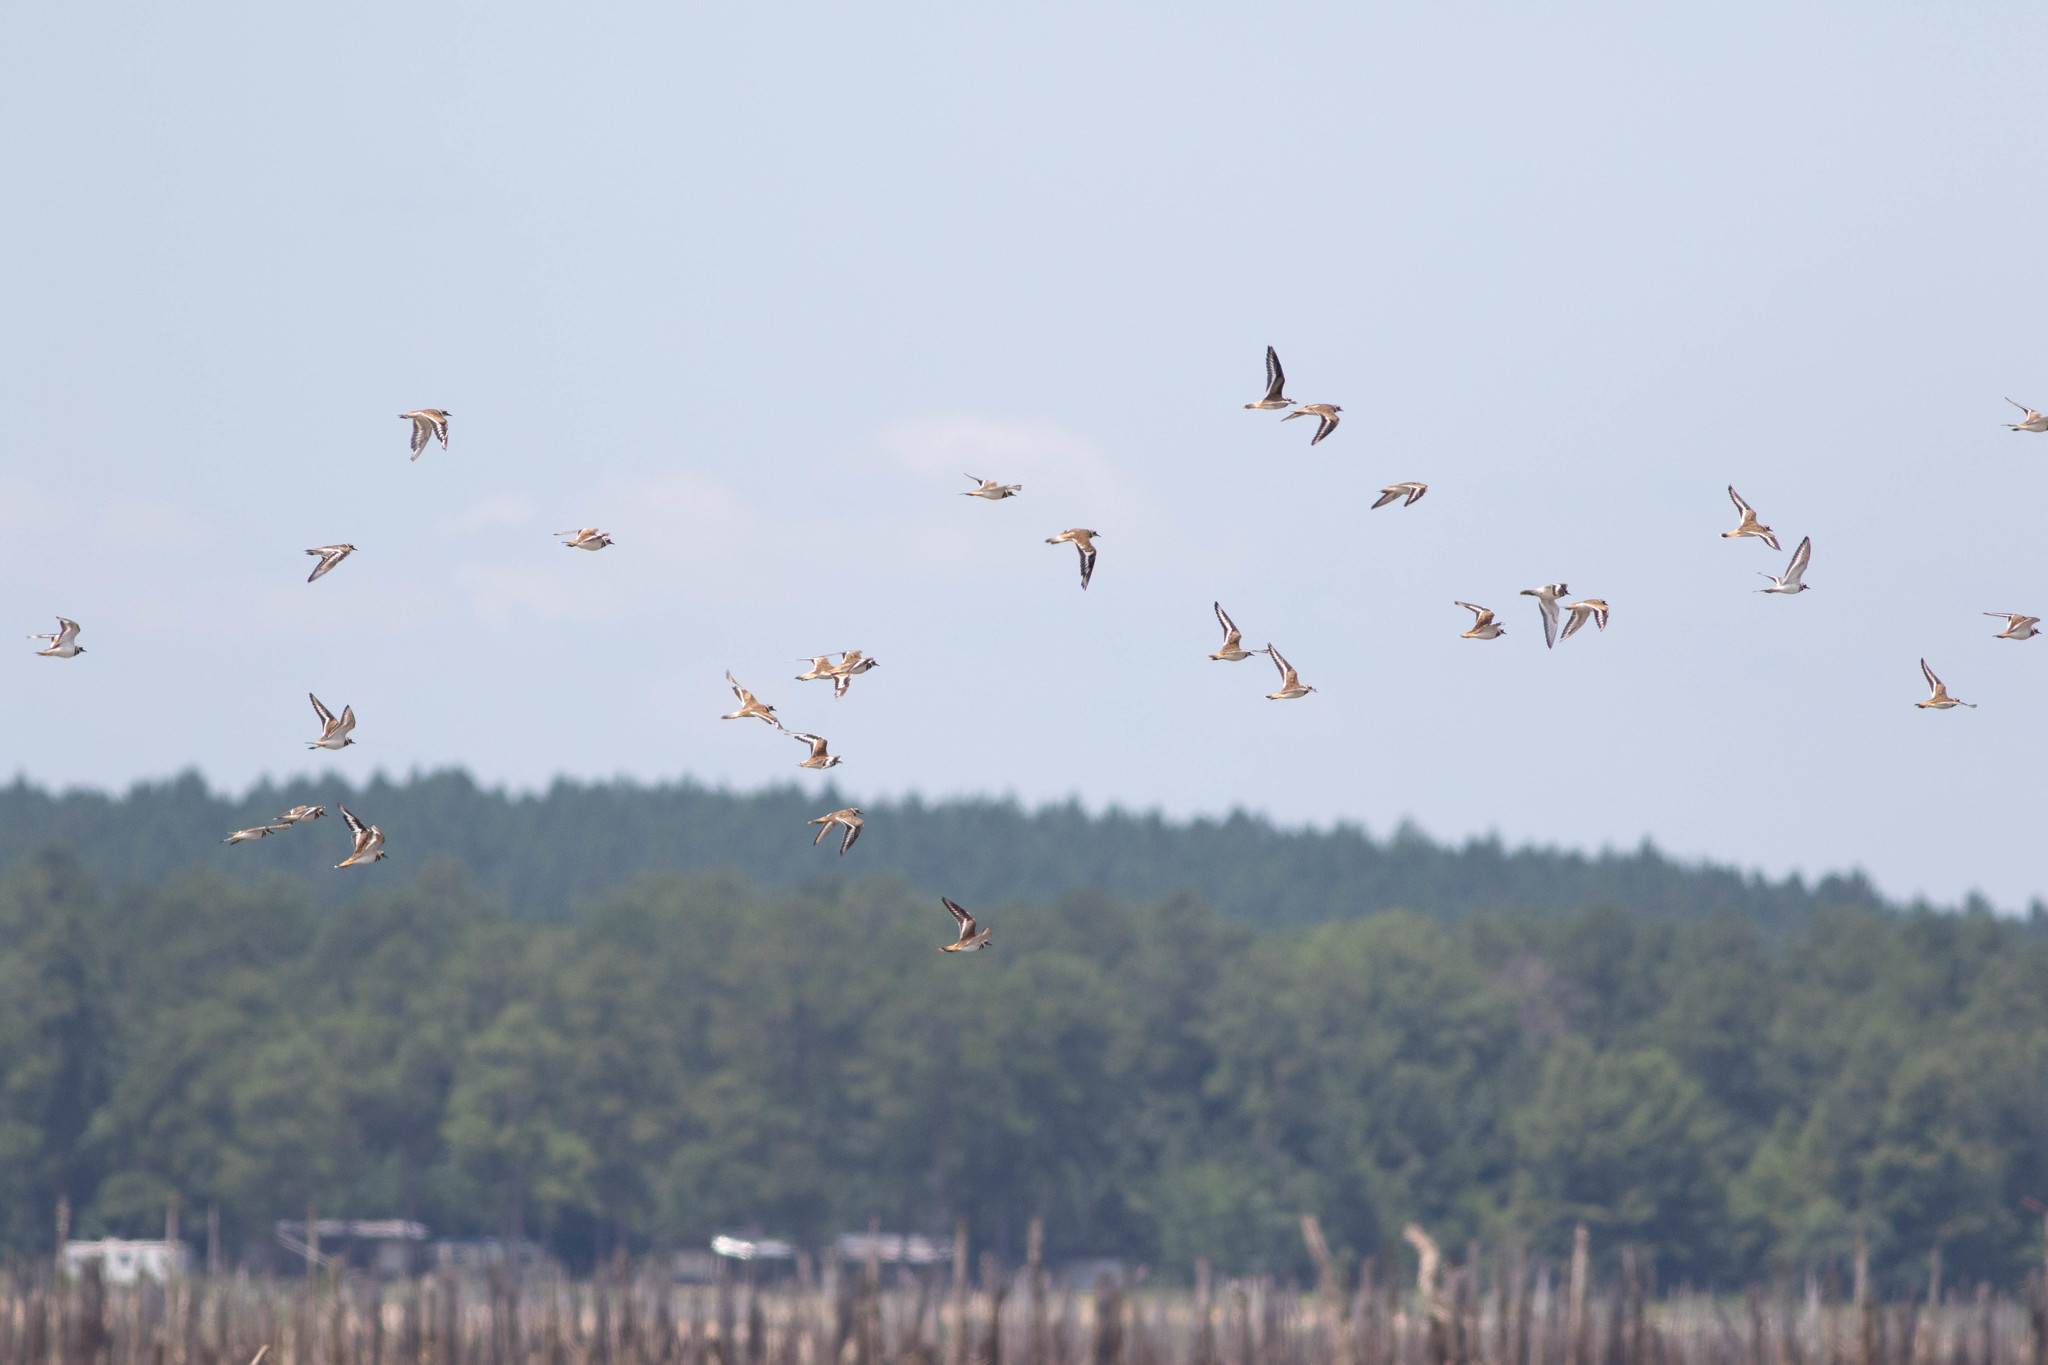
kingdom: Animalia
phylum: Chordata
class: Aves
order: Charadriiformes
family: Charadriidae
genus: Charadrius
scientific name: Charadrius vociferus
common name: Killdeer
